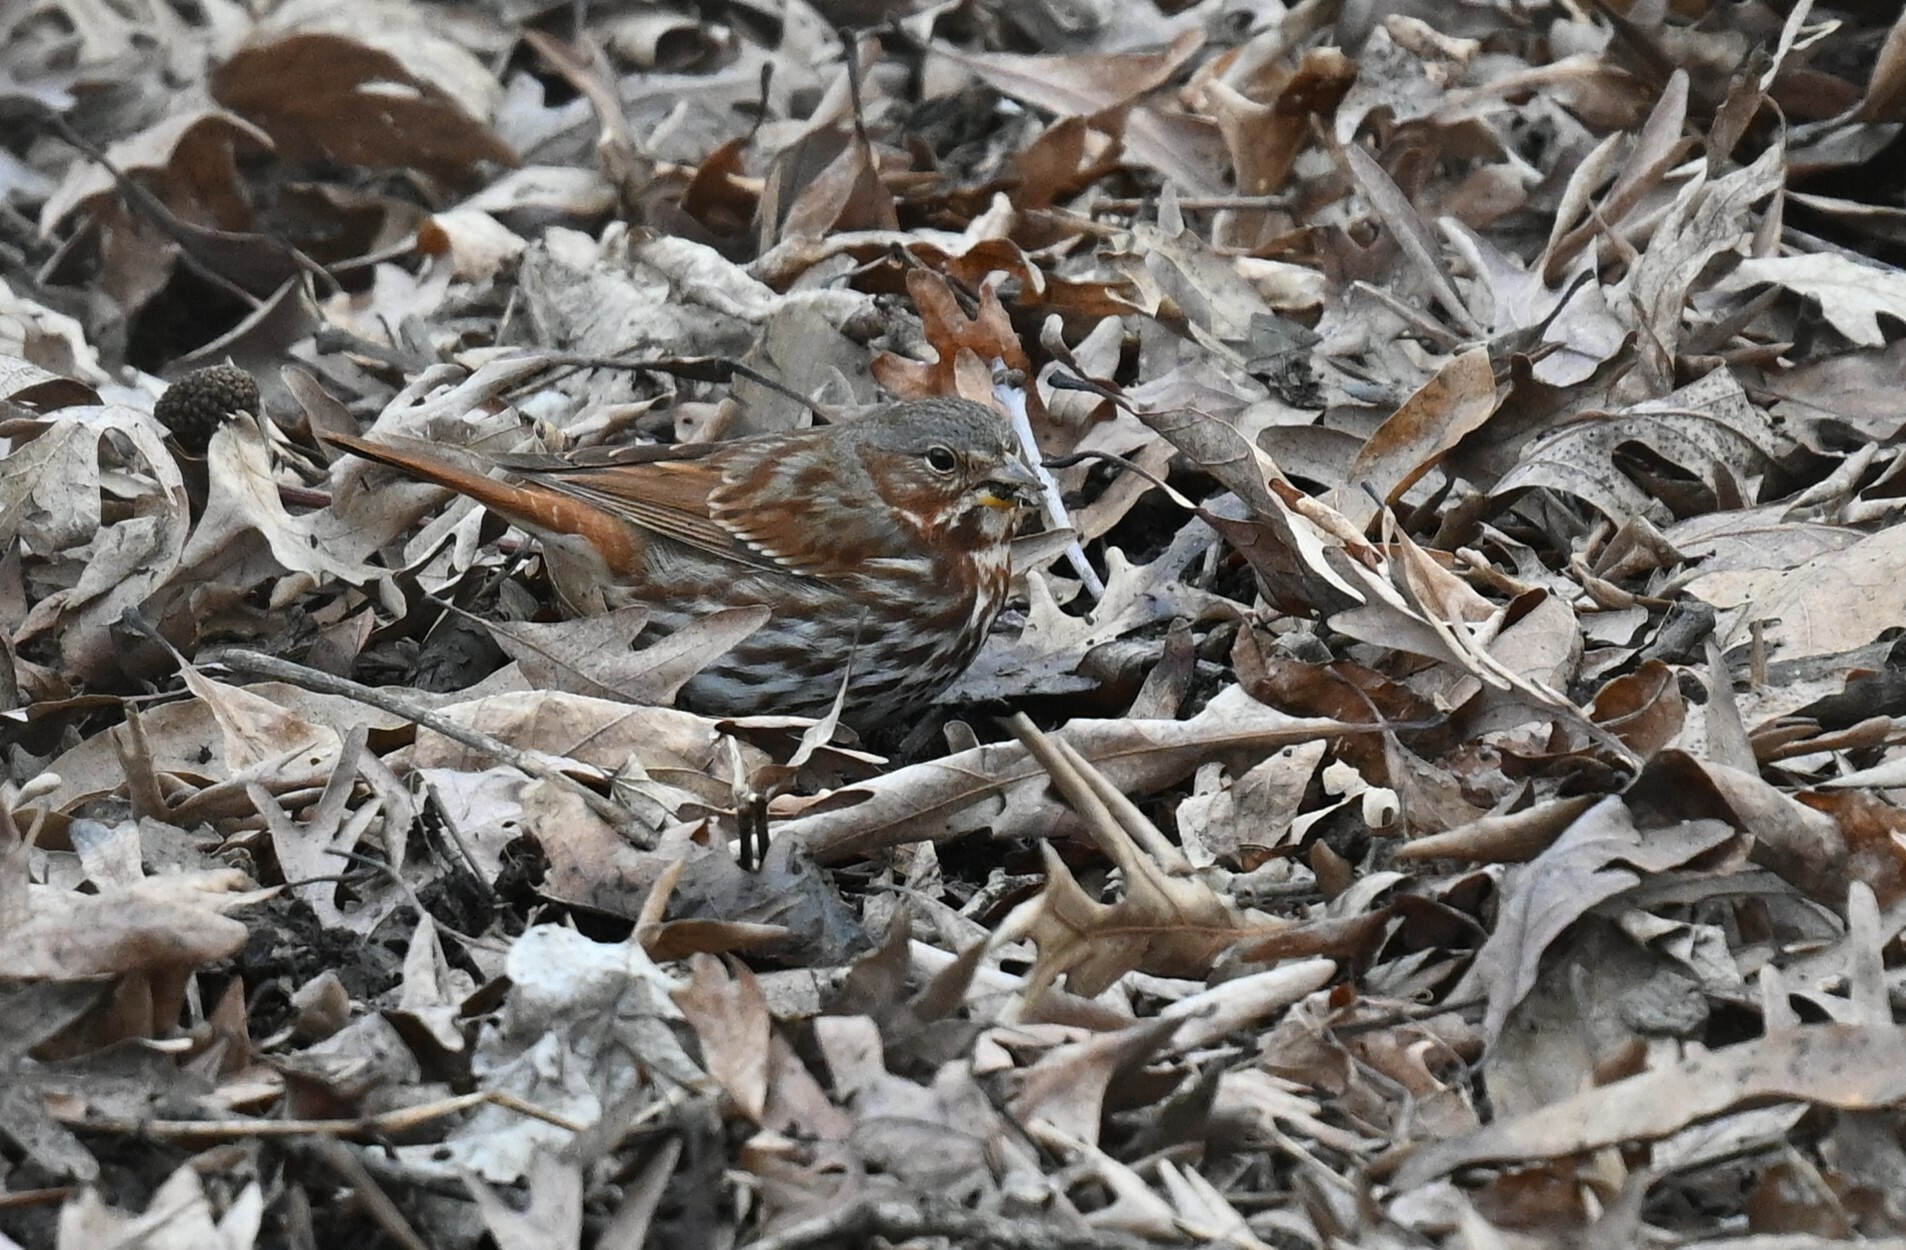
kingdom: Animalia
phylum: Chordata
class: Aves
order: Passeriformes
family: Passerellidae
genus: Passerella
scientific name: Passerella iliaca
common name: Fox sparrow
